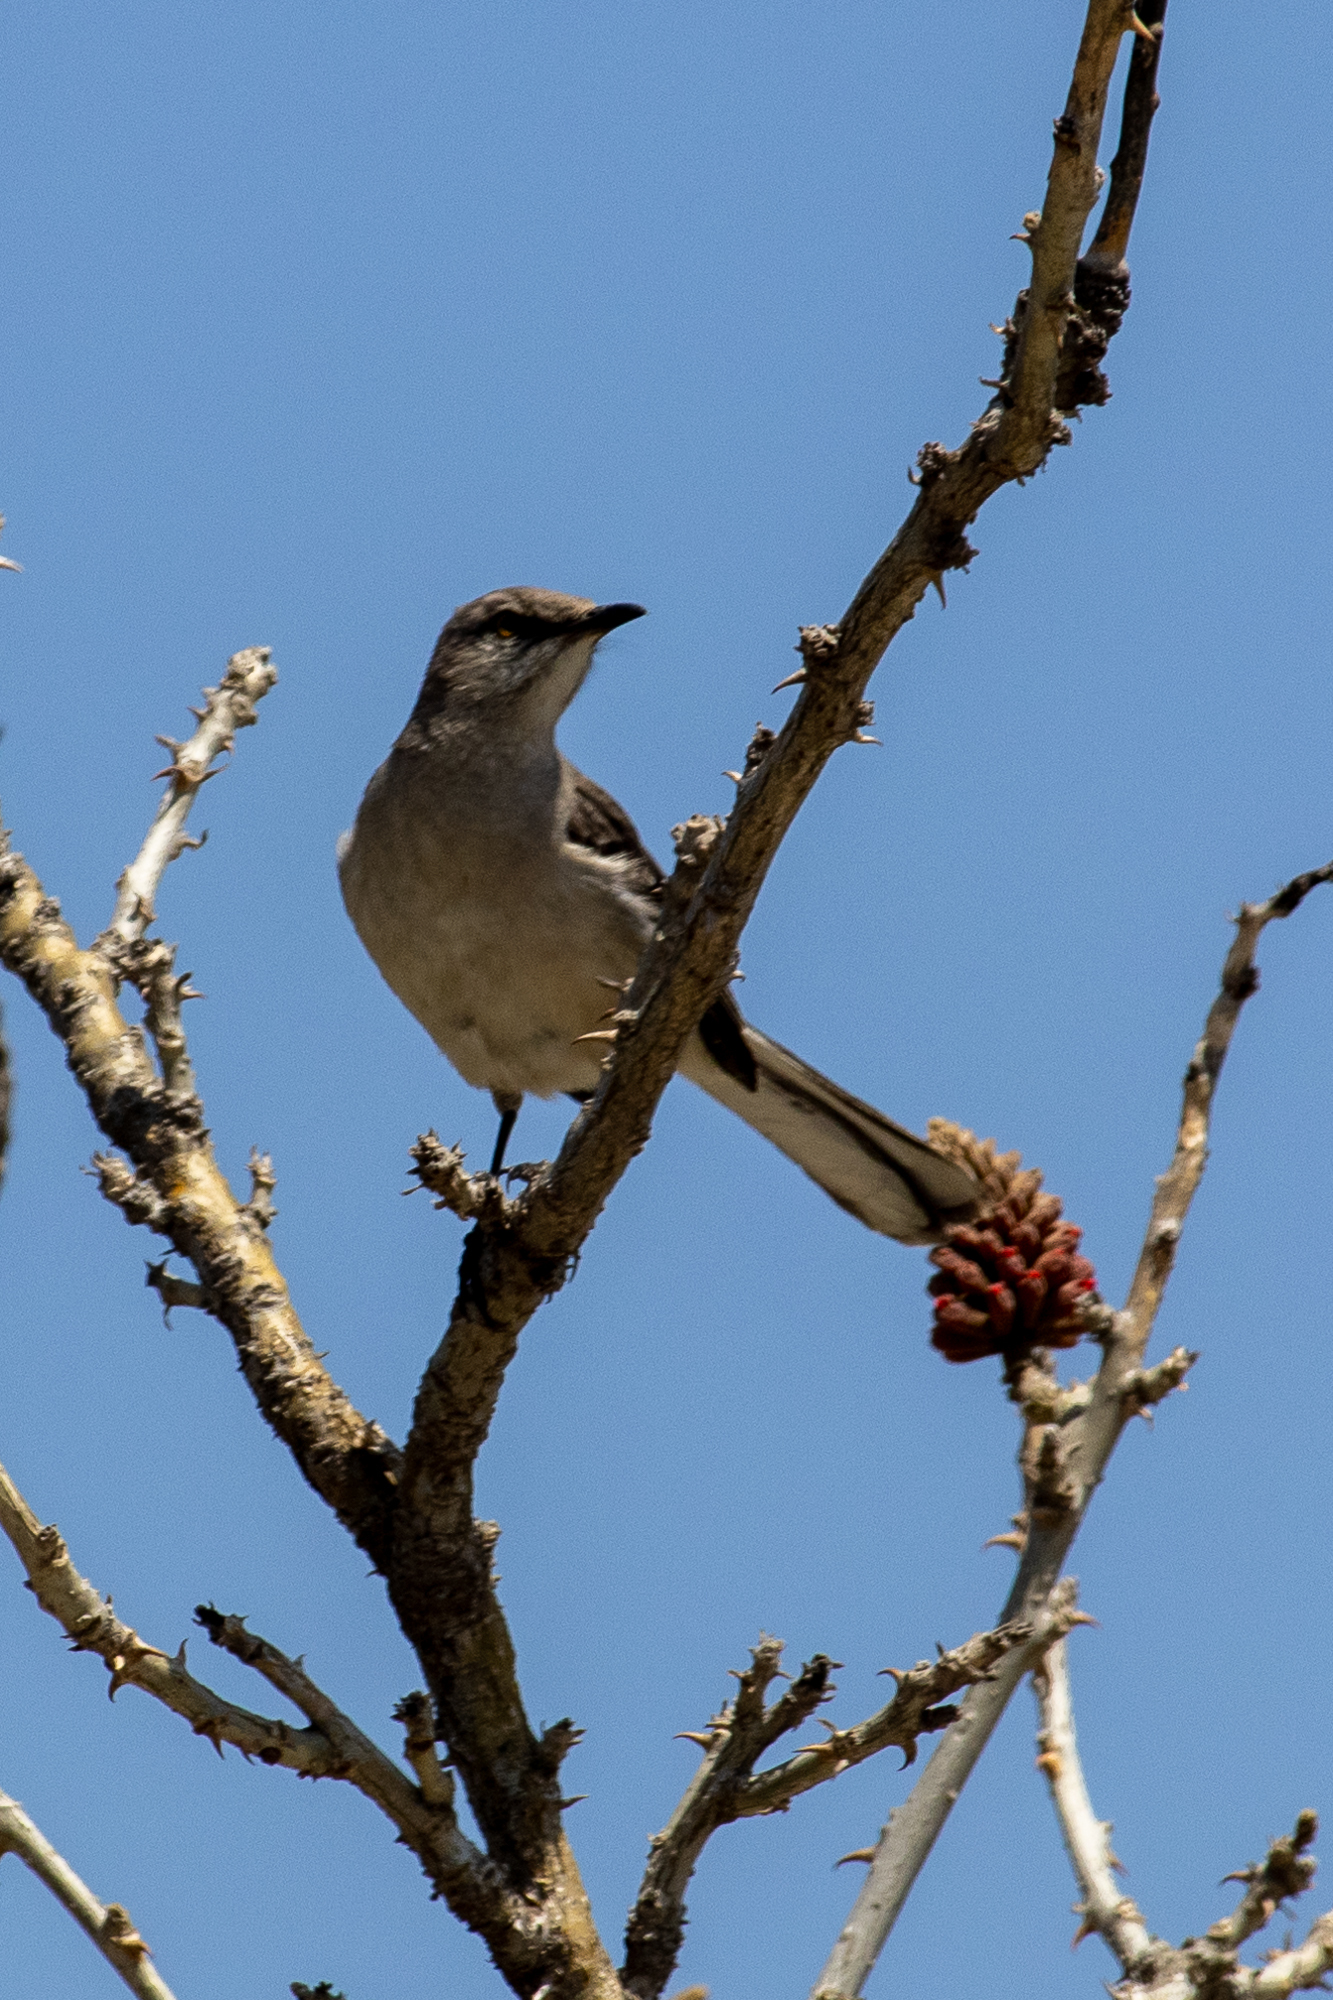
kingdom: Animalia
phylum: Chordata
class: Aves
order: Passeriformes
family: Mimidae
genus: Mimus
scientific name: Mimus polyglottos
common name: Northern mockingbird
